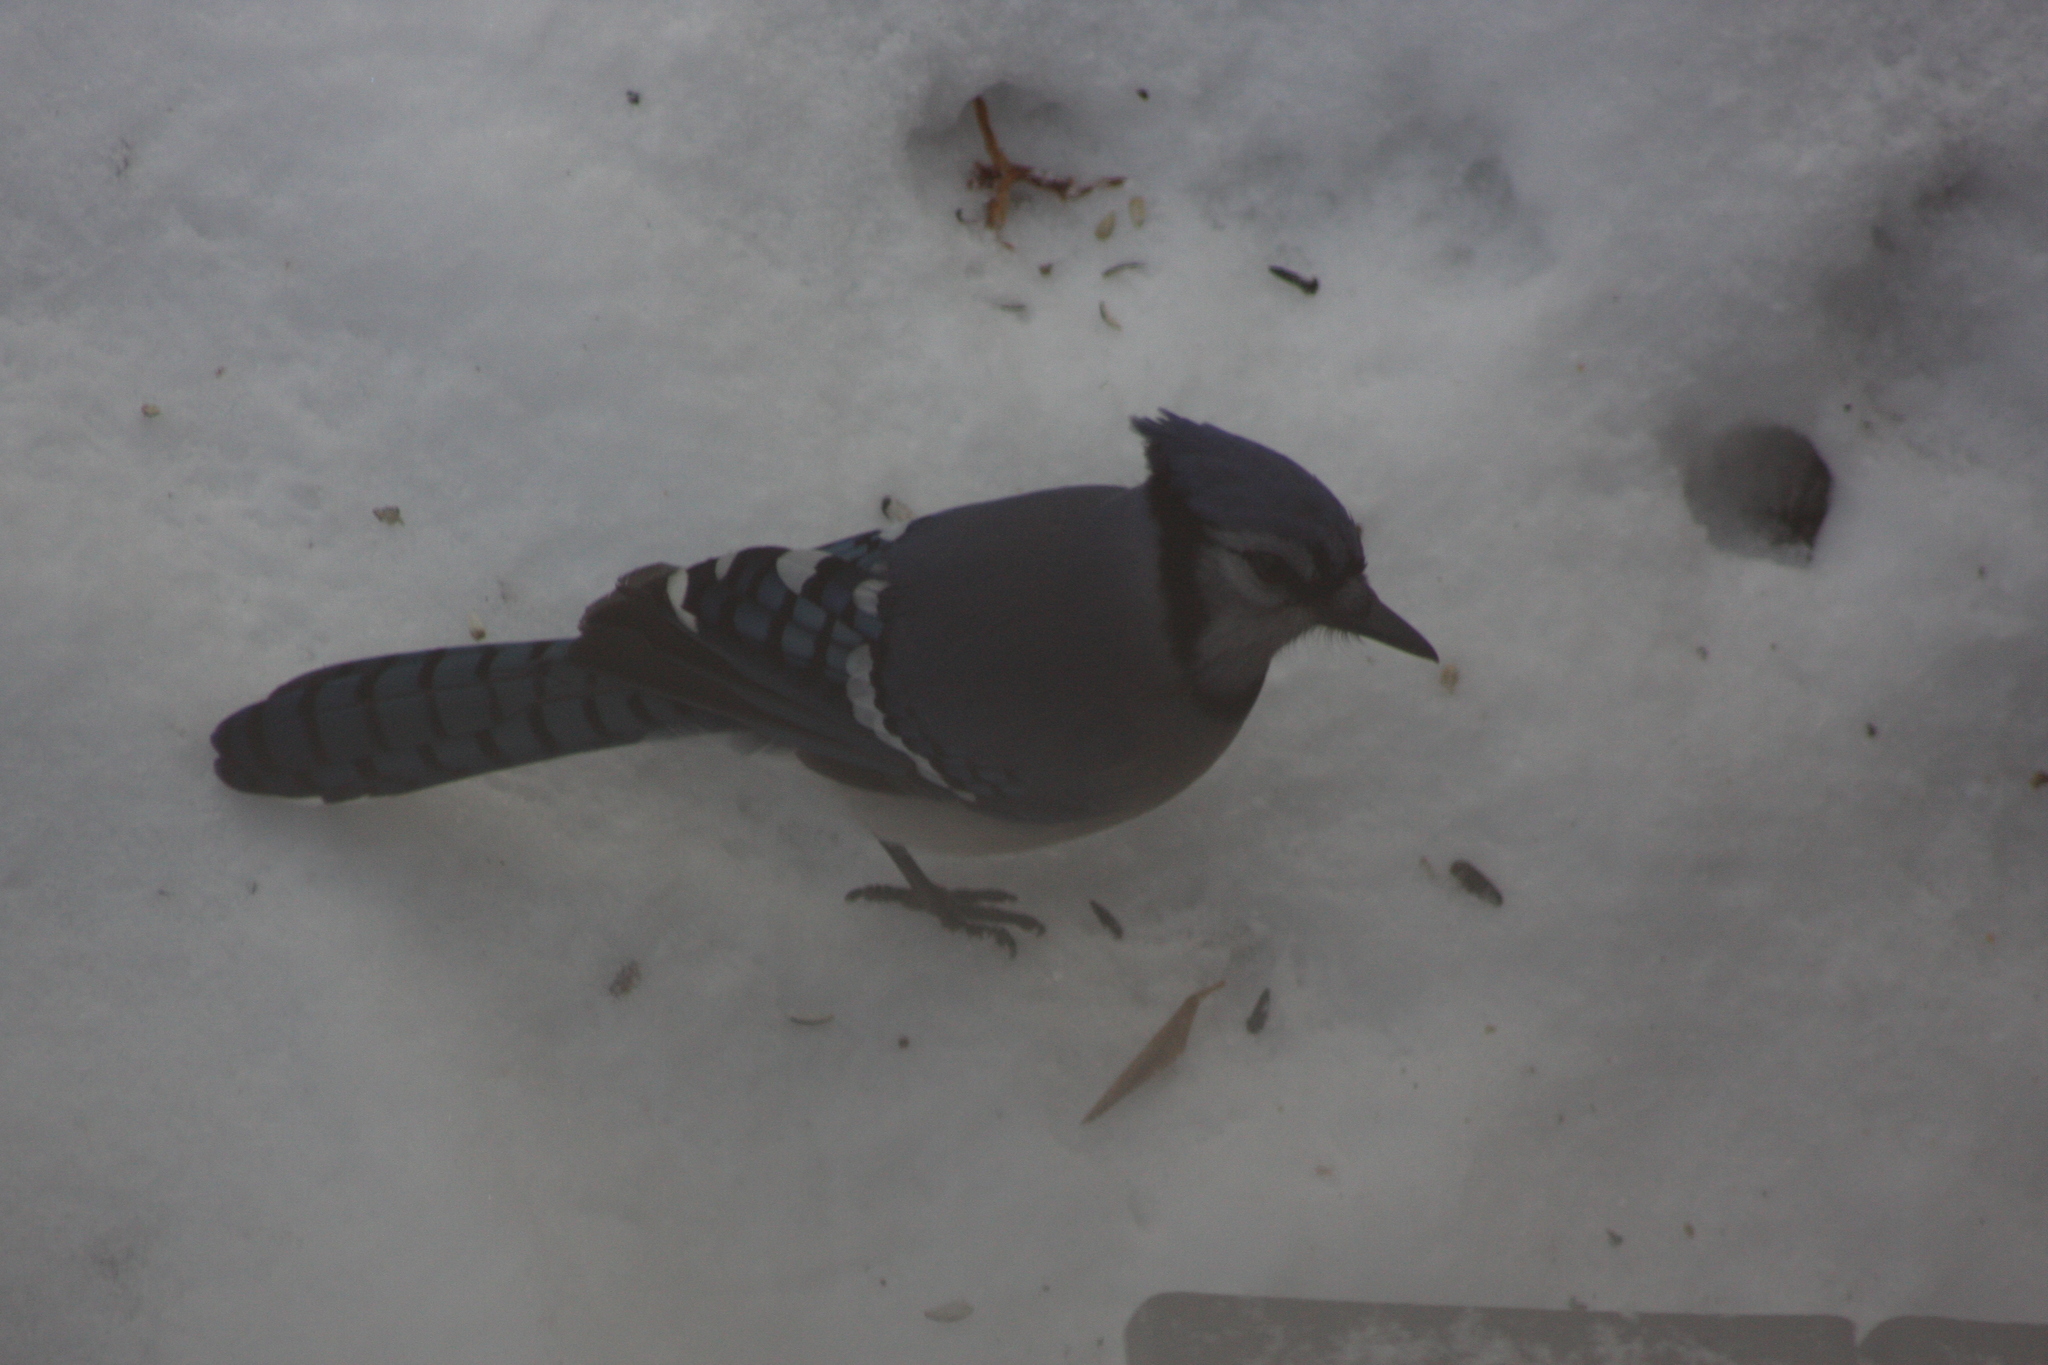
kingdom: Animalia
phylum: Chordata
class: Aves
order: Passeriformes
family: Corvidae
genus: Cyanocitta
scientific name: Cyanocitta cristata
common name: Blue jay
